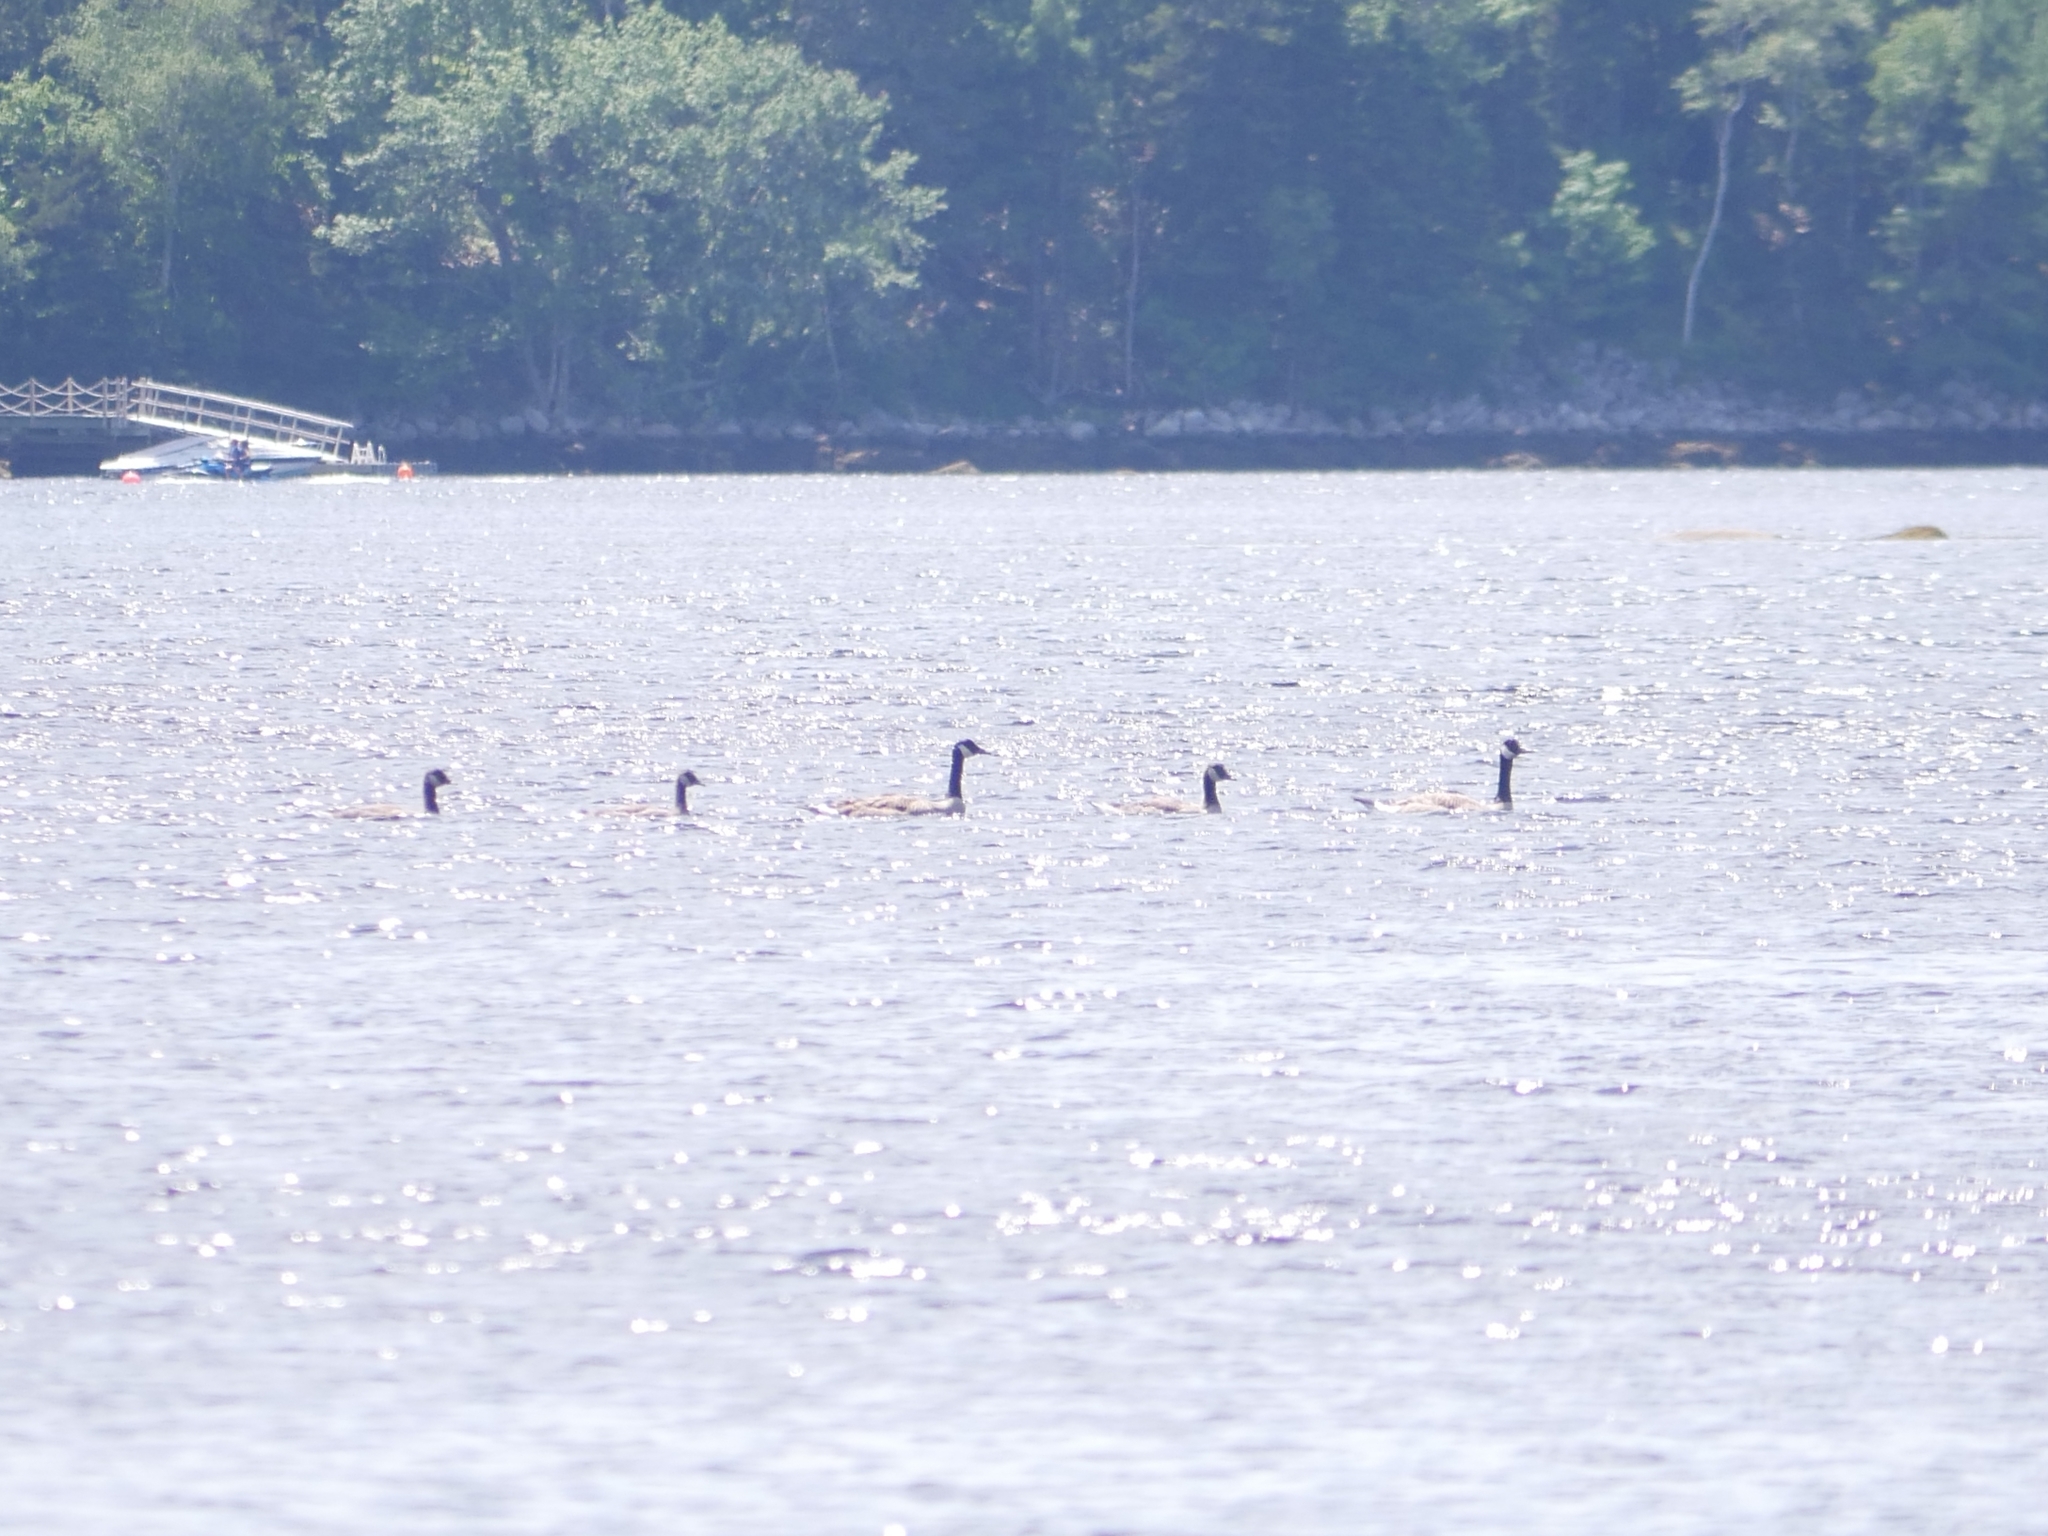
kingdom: Animalia
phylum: Chordata
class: Aves
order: Anseriformes
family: Anatidae
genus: Branta
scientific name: Branta canadensis
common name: Canada goose
